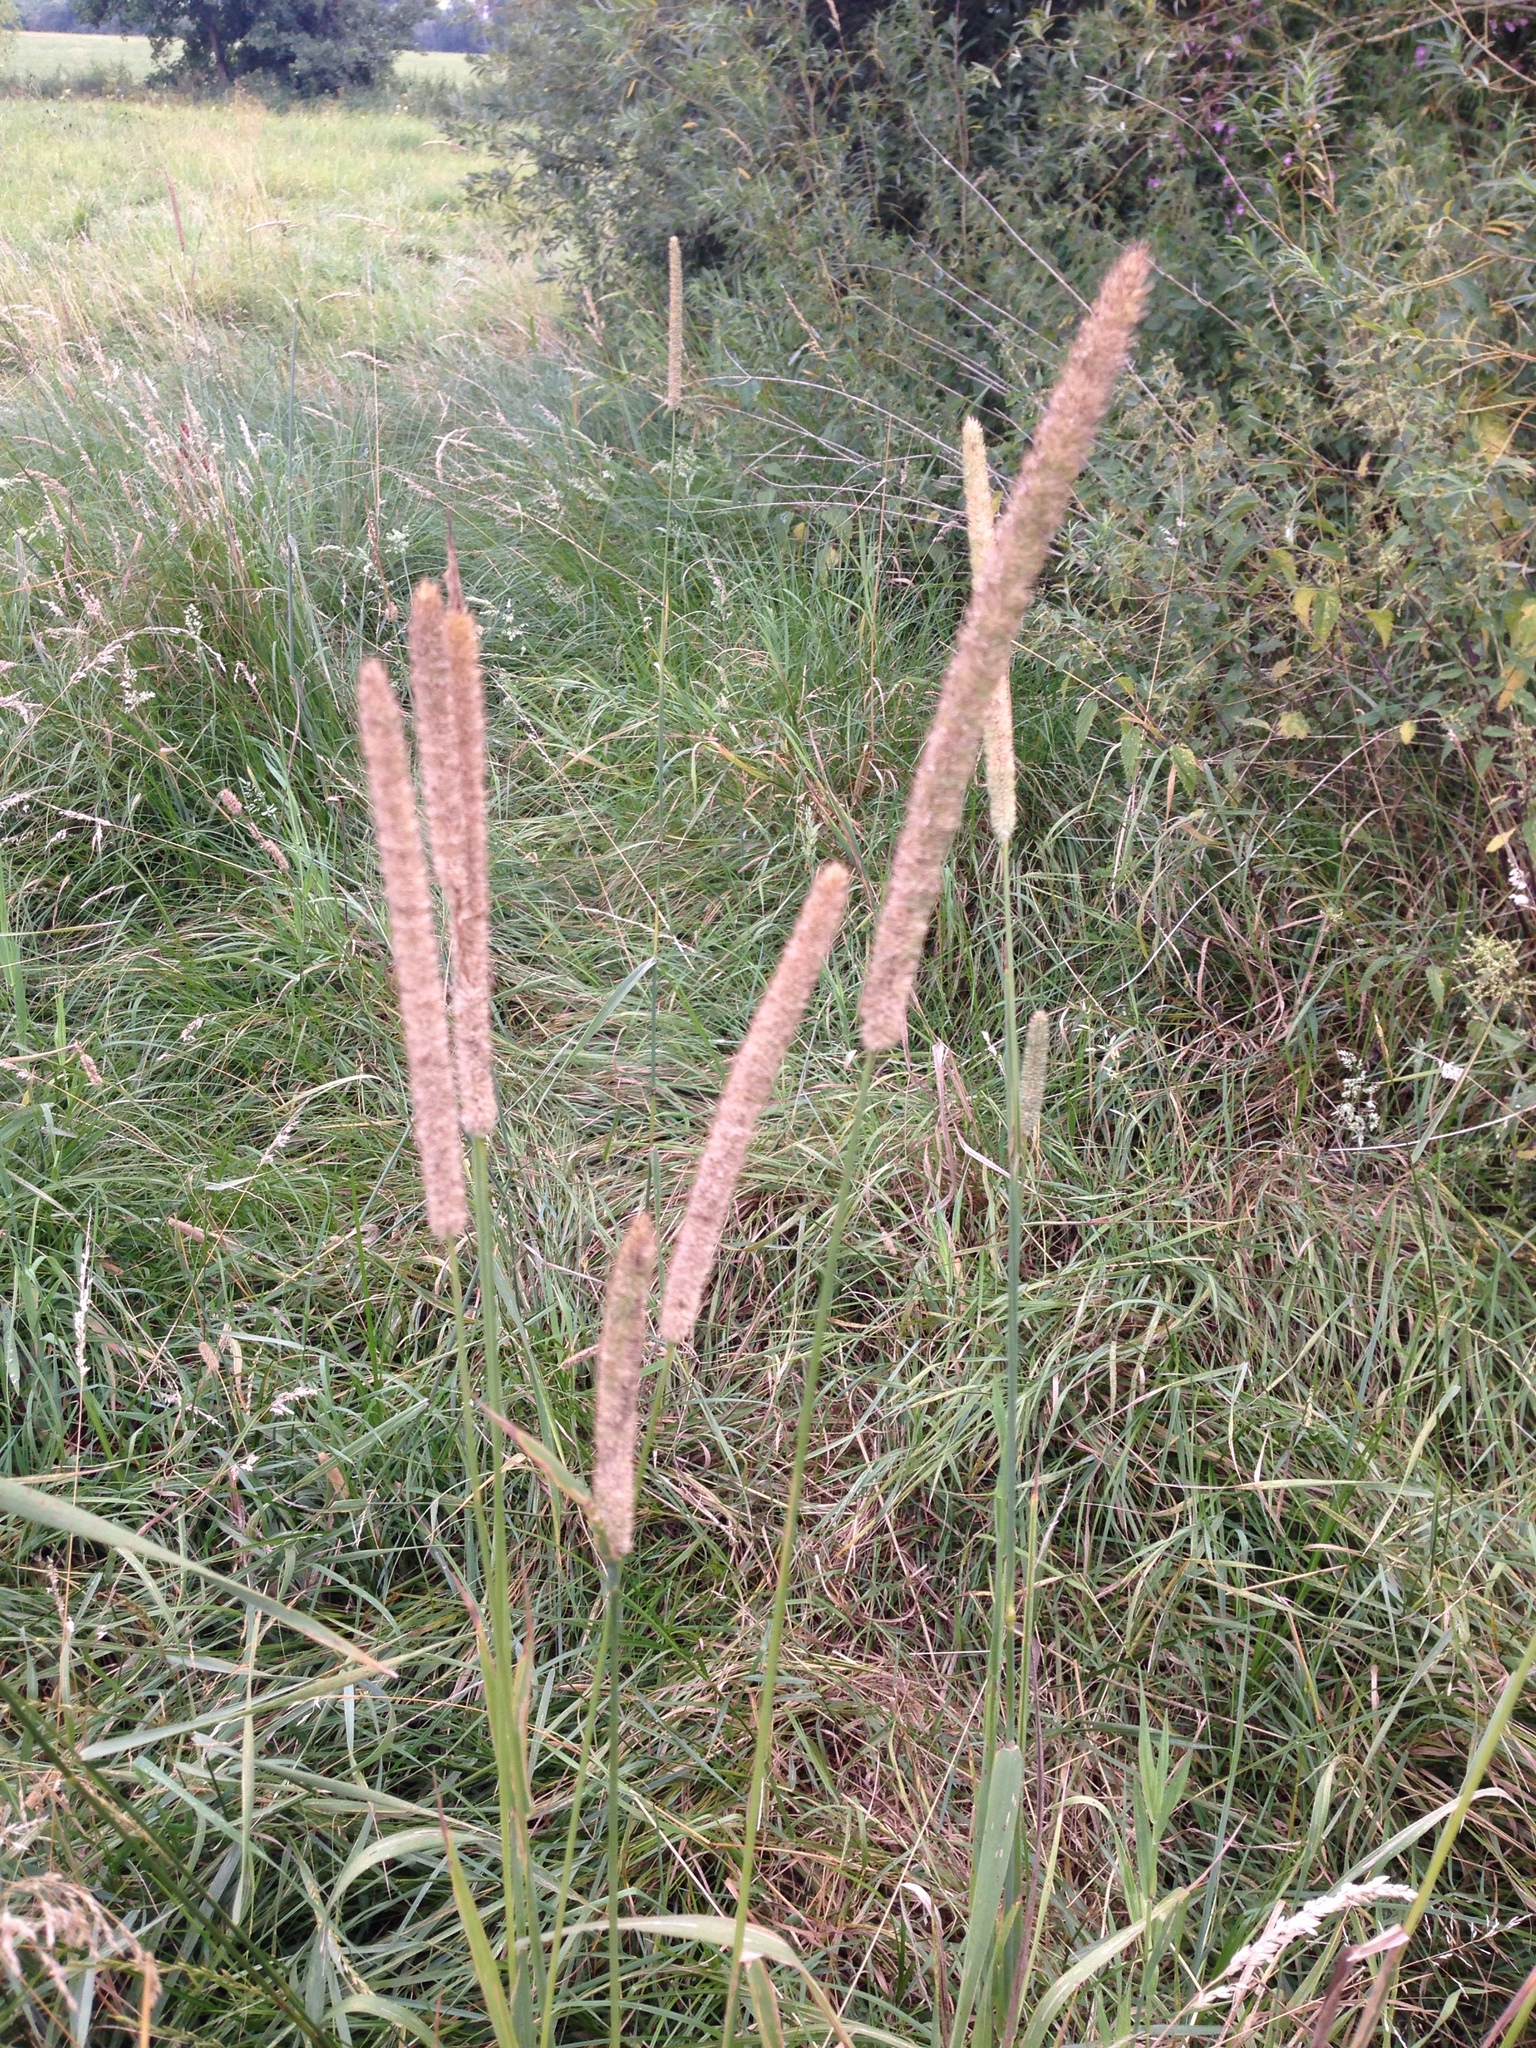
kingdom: Plantae
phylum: Tracheophyta
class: Liliopsida
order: Poales
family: Poaceae
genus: Phleum
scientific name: Phleum pratense
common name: Timothy grass
